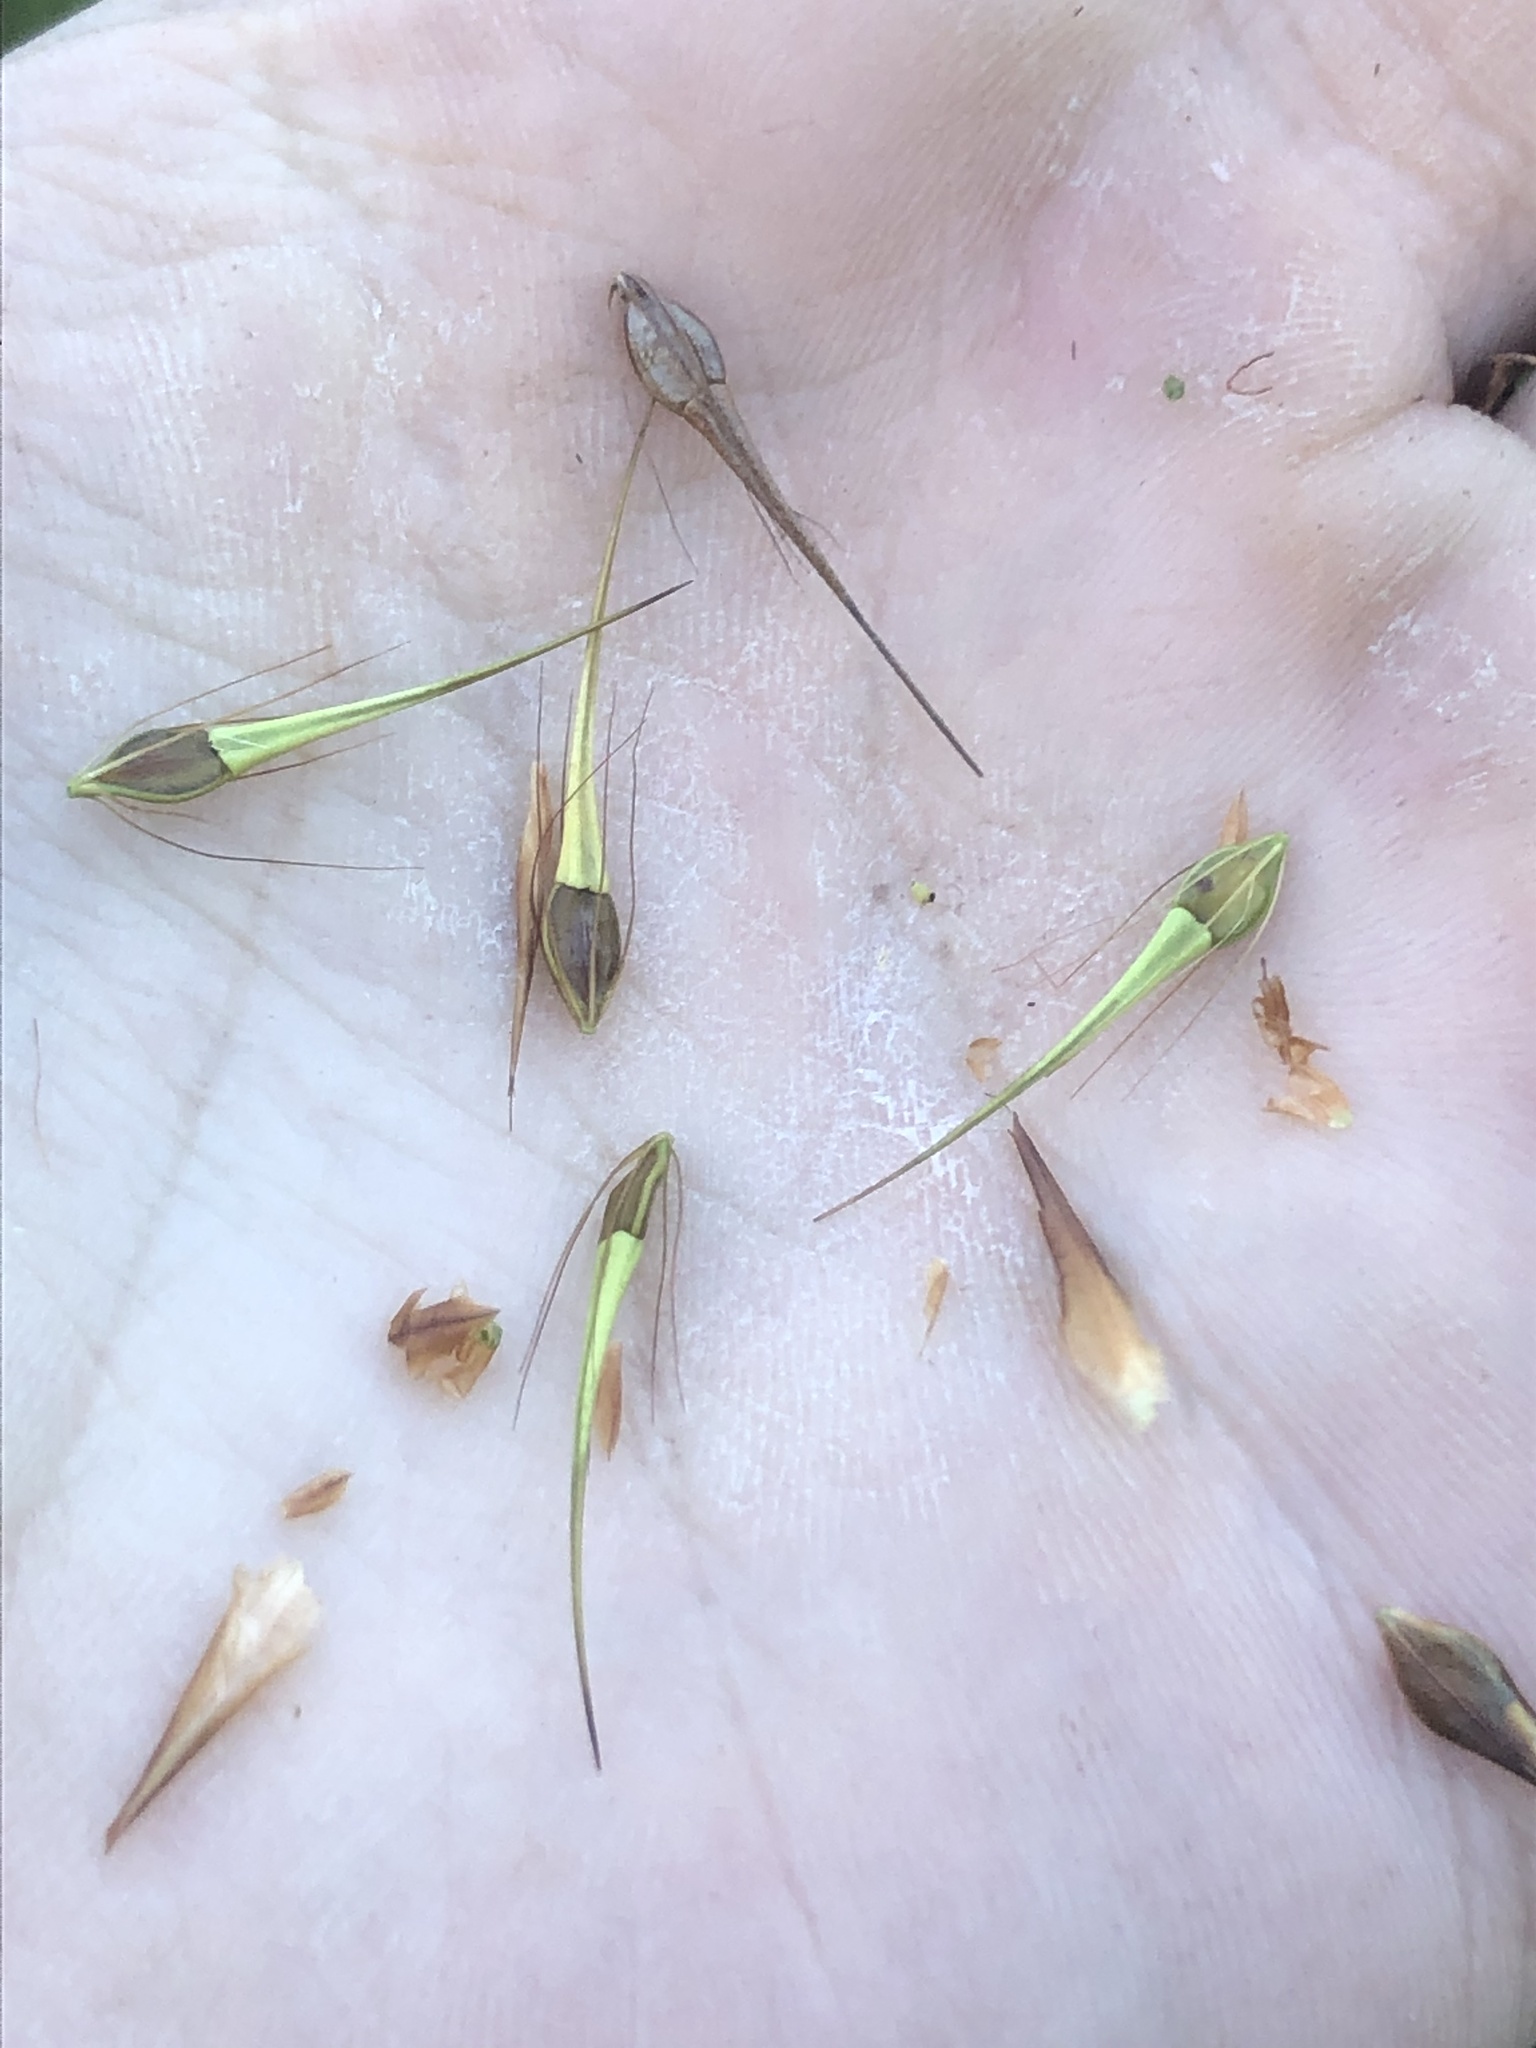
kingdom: Plantae
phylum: Tracheophyta
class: Liliopsida
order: Poales
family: Cyperaceae
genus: Rhynchospora
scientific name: Rhynchospora macrostachya
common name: Tall beakrush
